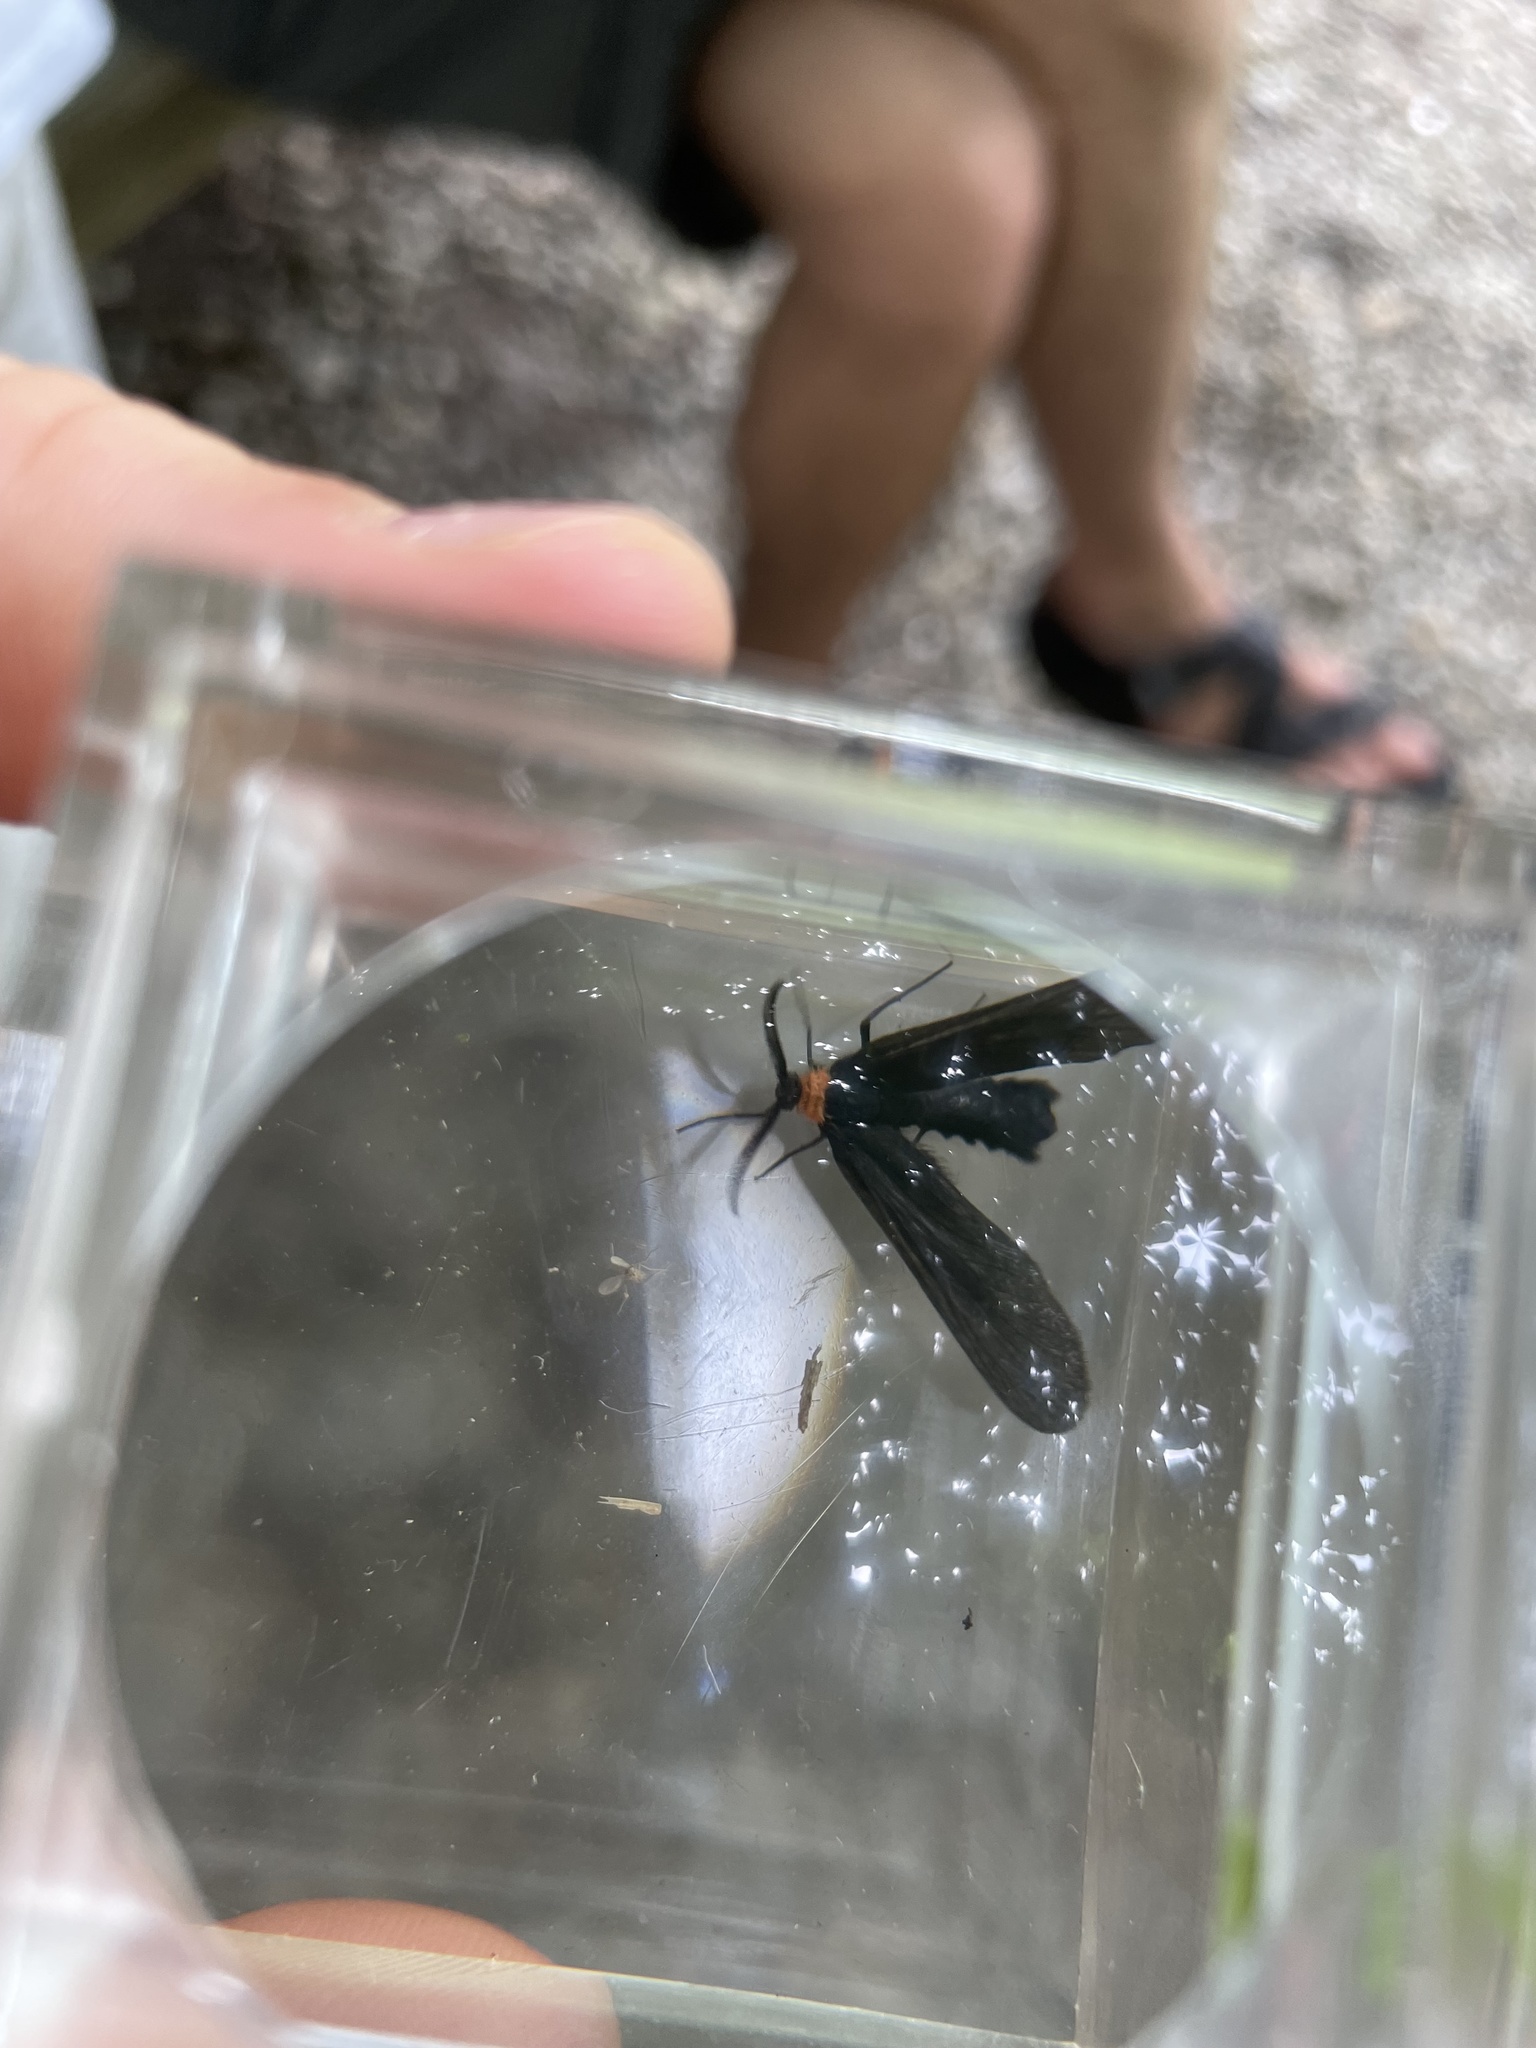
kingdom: Animalia
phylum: Arthropoda
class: Insecta
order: Lepidoptera
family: Zygaenidae
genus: Harrisina
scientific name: Harrisina americana
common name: Grapeleaf skeletonizer moth
